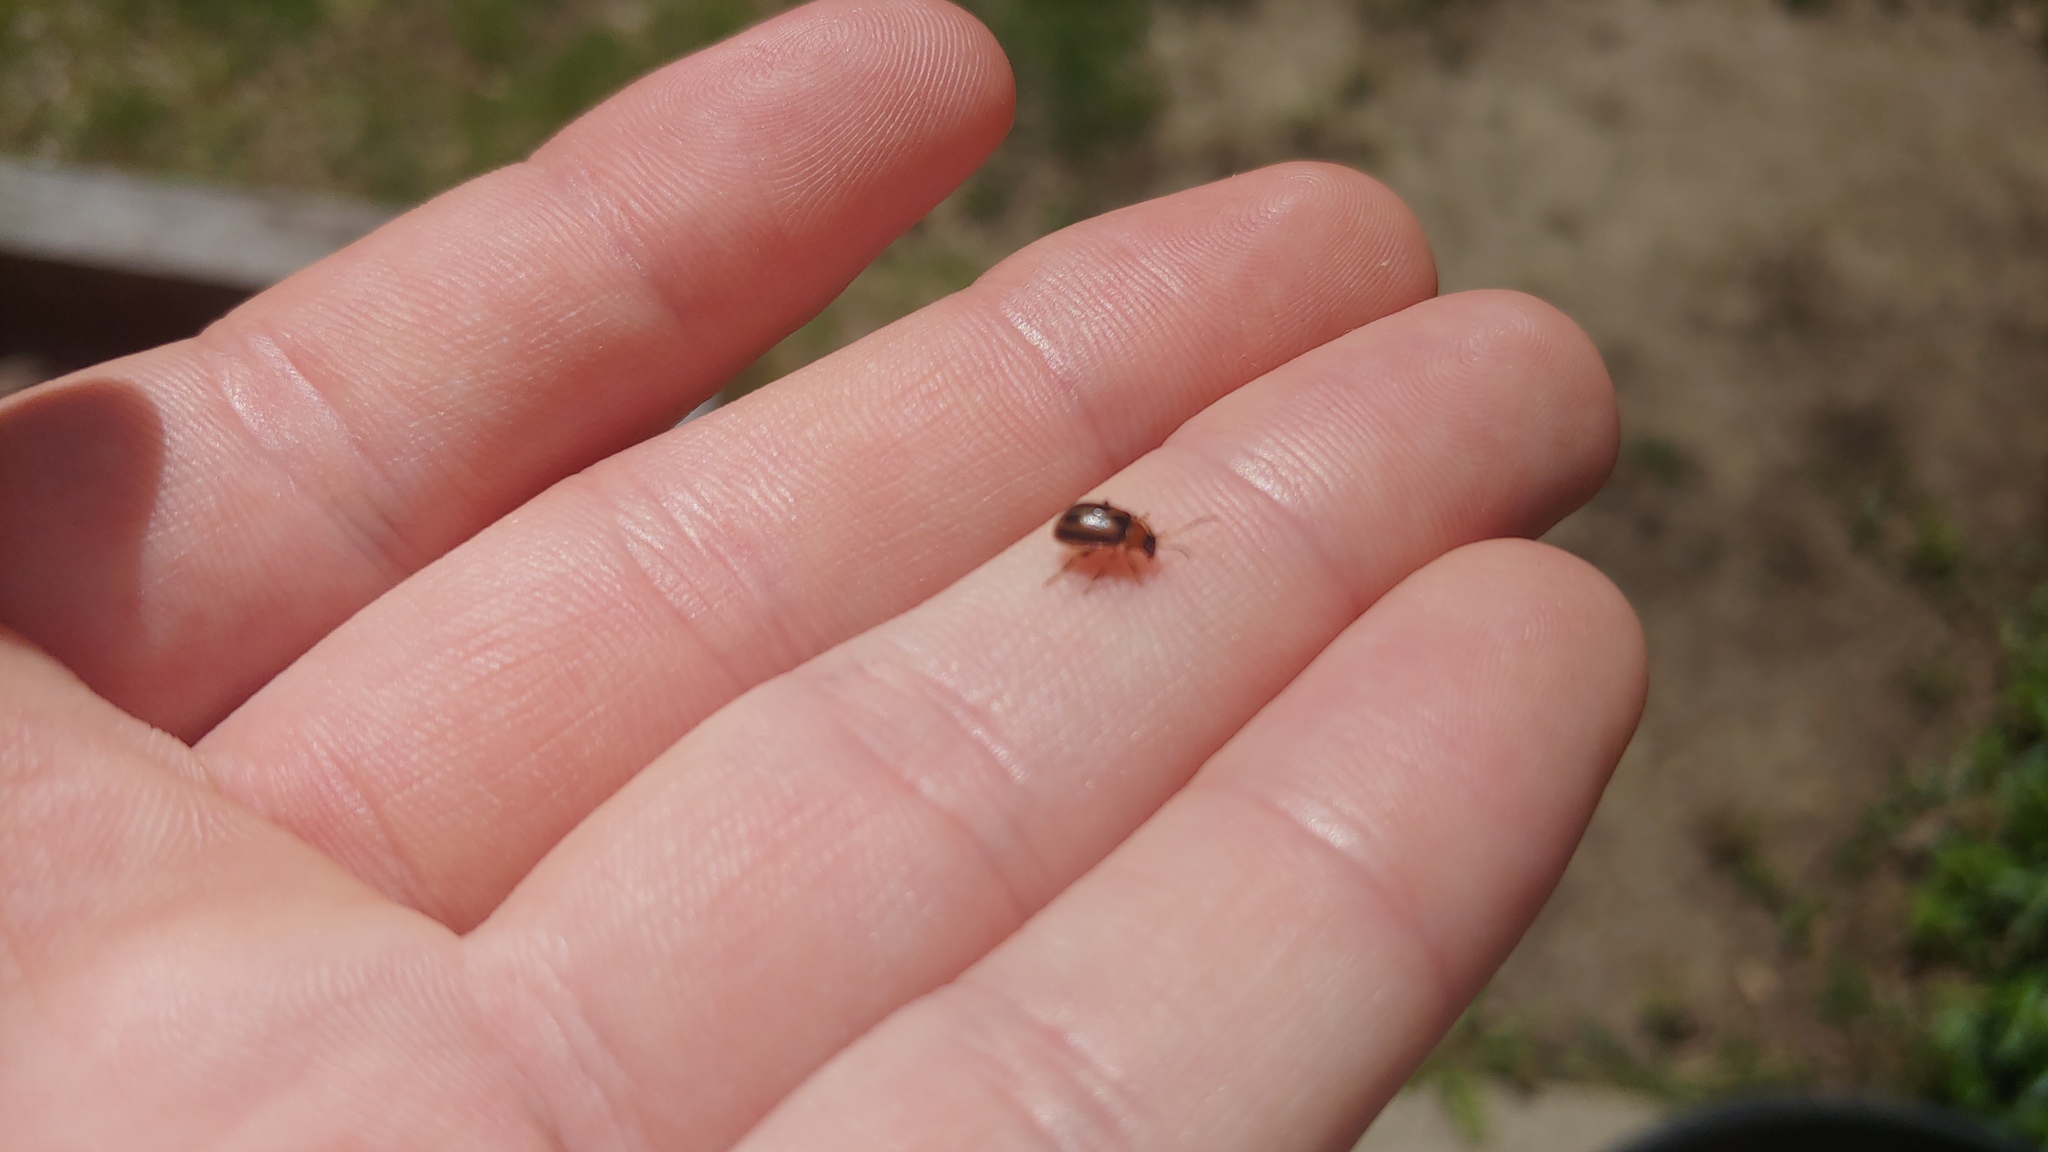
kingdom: Animalia
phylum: Arthropoda
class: Insecta
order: Coleoptera
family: Chrysomelidae
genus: Cerotoma
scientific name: Cerotoma trifurcata
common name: Bean leaf beetle
